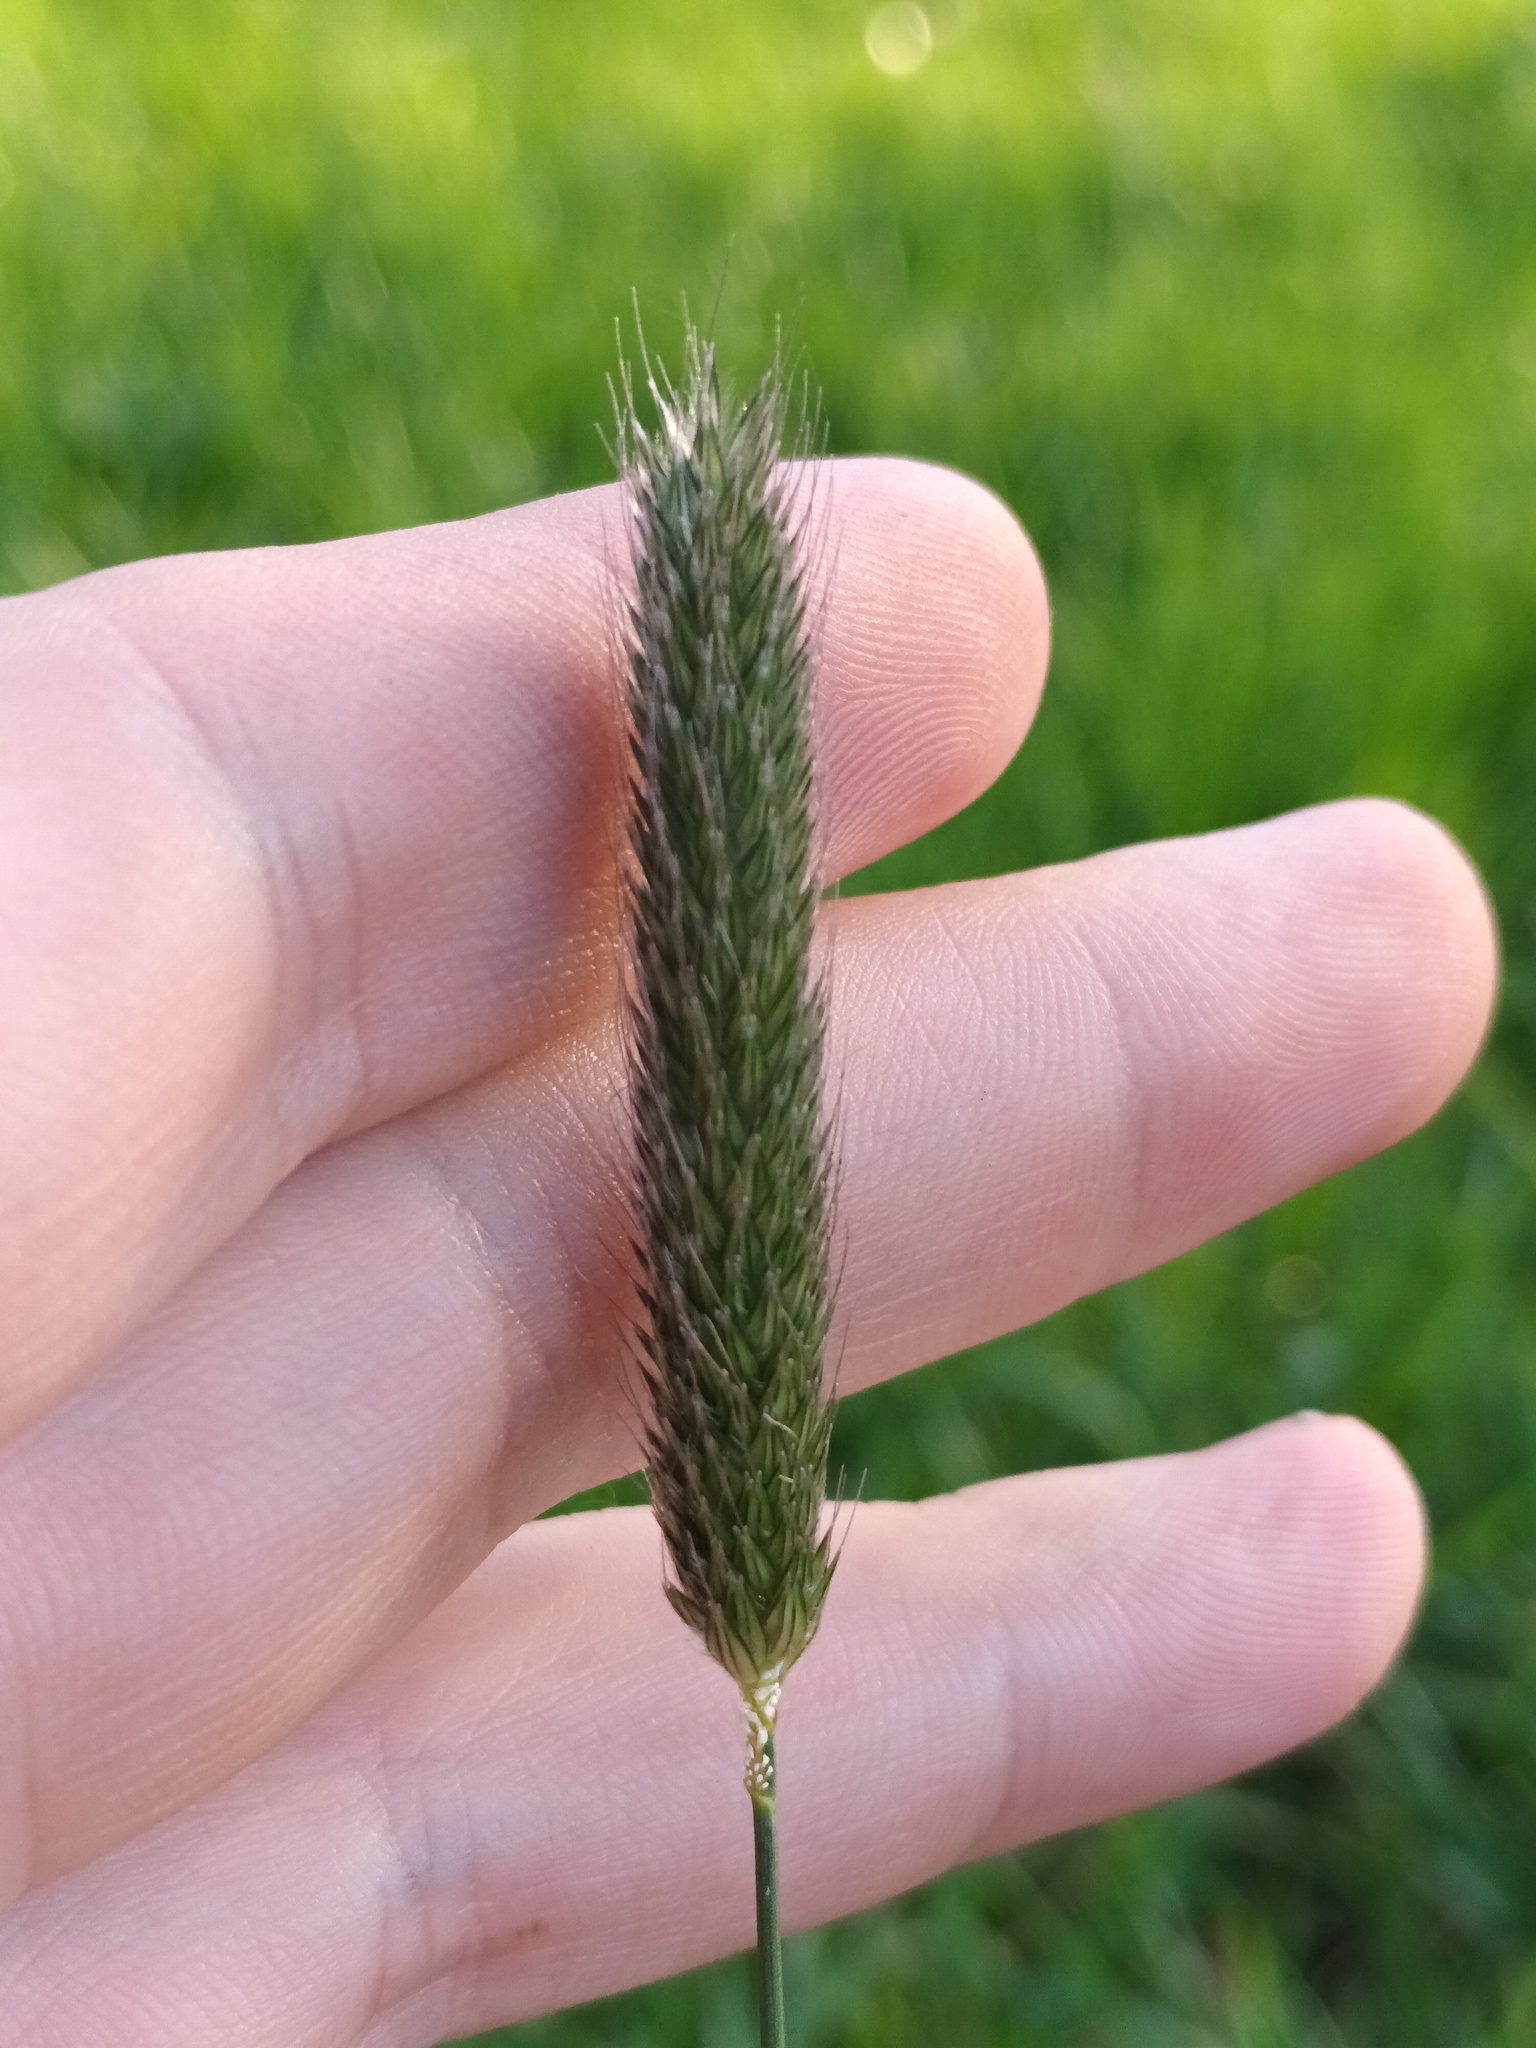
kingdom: Plantae
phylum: Tracheophyta
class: Liliopsida
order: Poales
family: Poaceae
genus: Alopecurus
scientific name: Alopecurus pratensis
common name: Meadow foxtail
